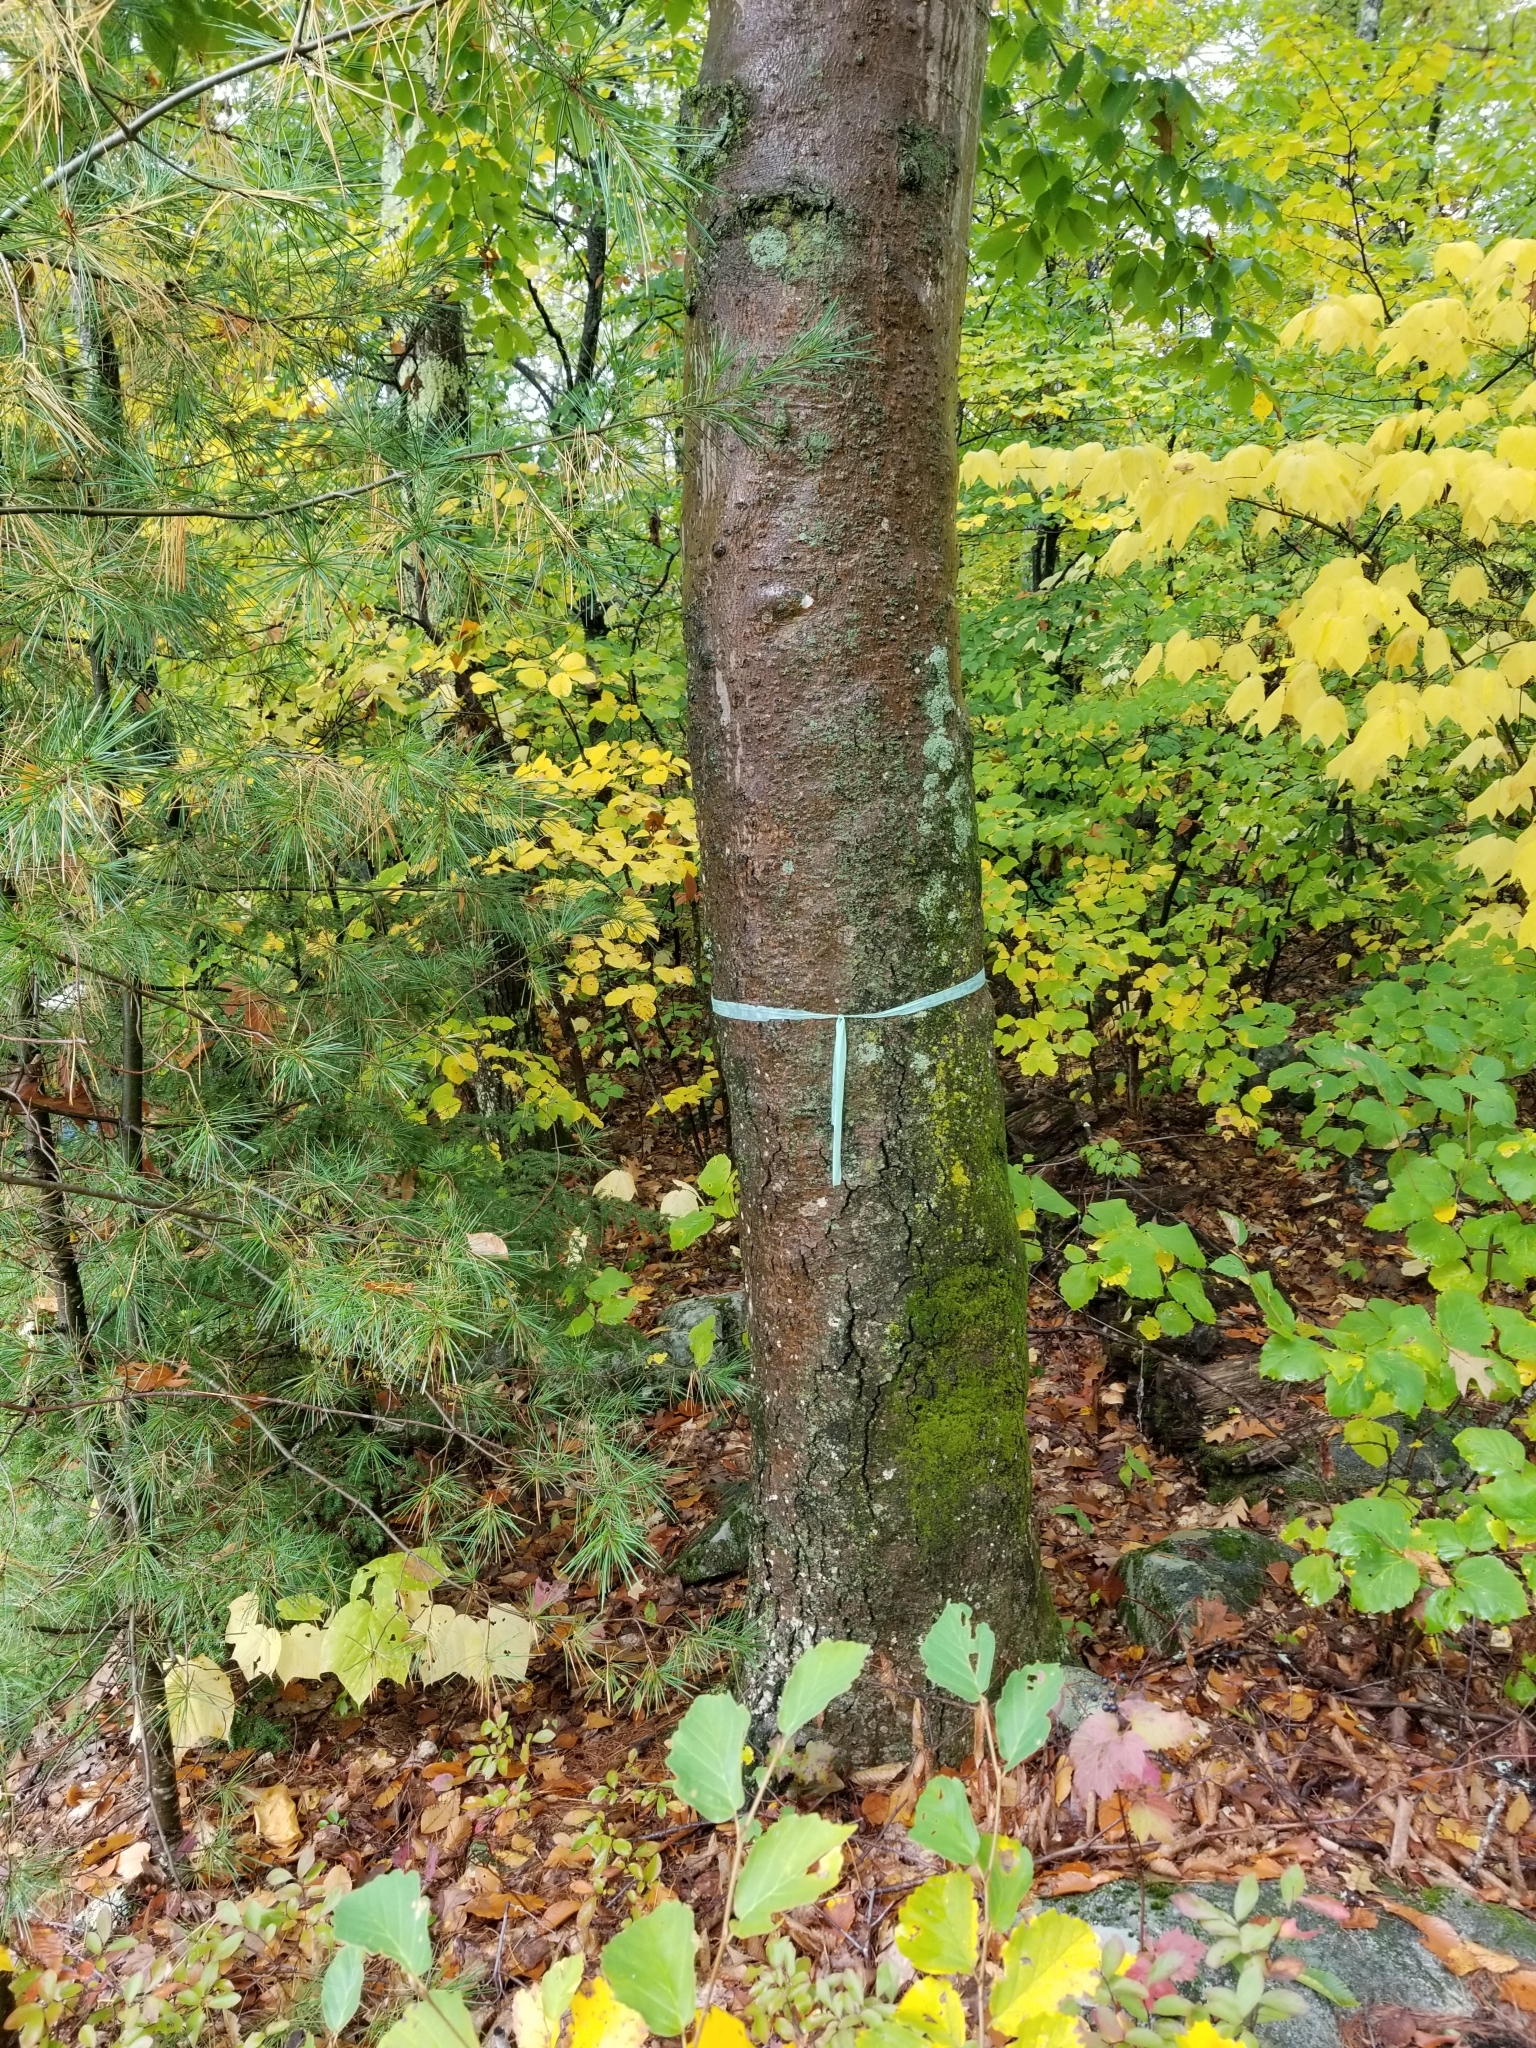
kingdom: Plantae
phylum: Tracheophyta
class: Magnoliopsida
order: Fagales
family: Fagaceae
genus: Fagus
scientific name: Fagus grandifolia
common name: American beech
